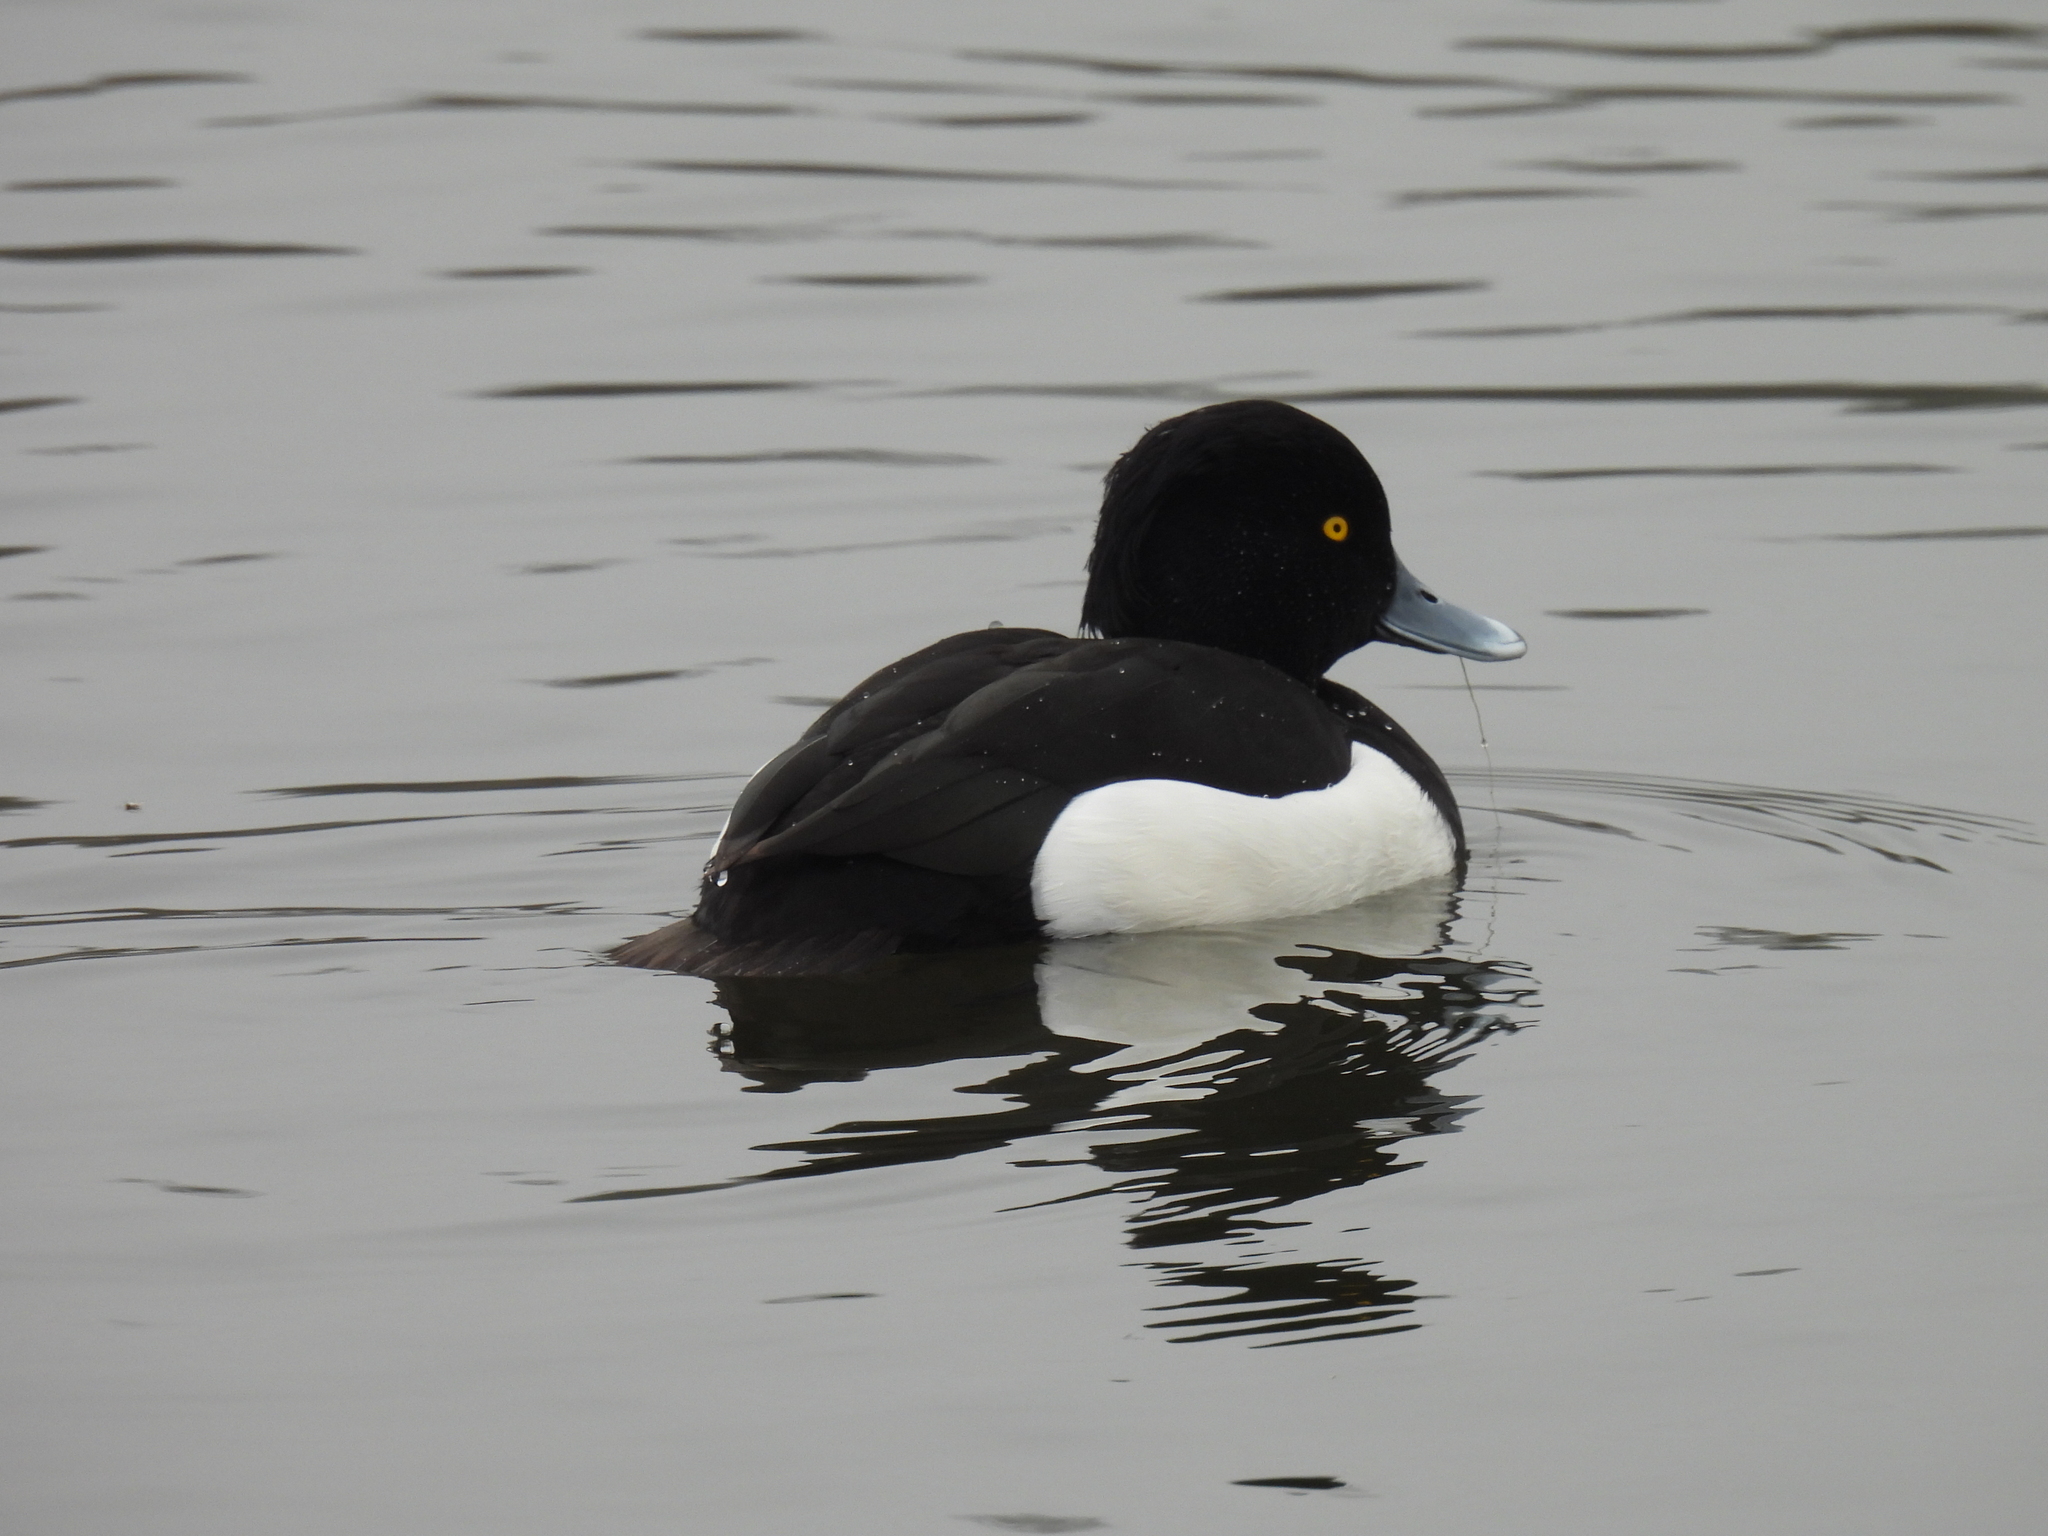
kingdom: Animalia
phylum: Chordata
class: Aves
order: Anseriformes
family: Anatidae
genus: Aythya
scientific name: Aythya fuligula
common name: Tufted duck
